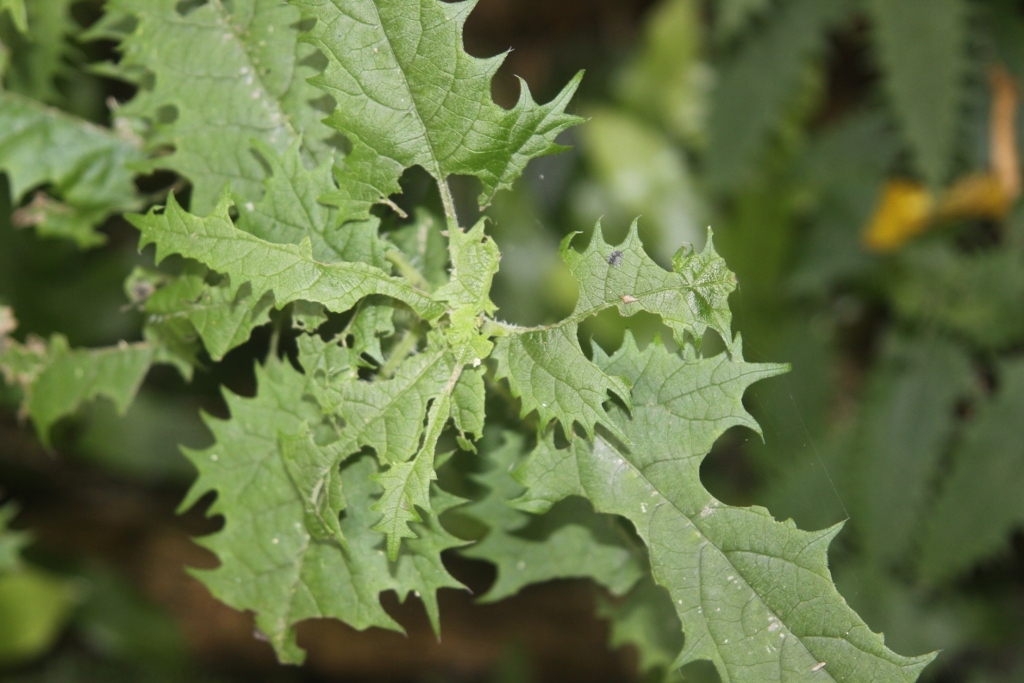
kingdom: Plantae
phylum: Tracheophyta
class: Magnoliopsida
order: Rosales
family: Urticaceae
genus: Urtica
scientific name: Urtica ferox
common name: Tree nettle
